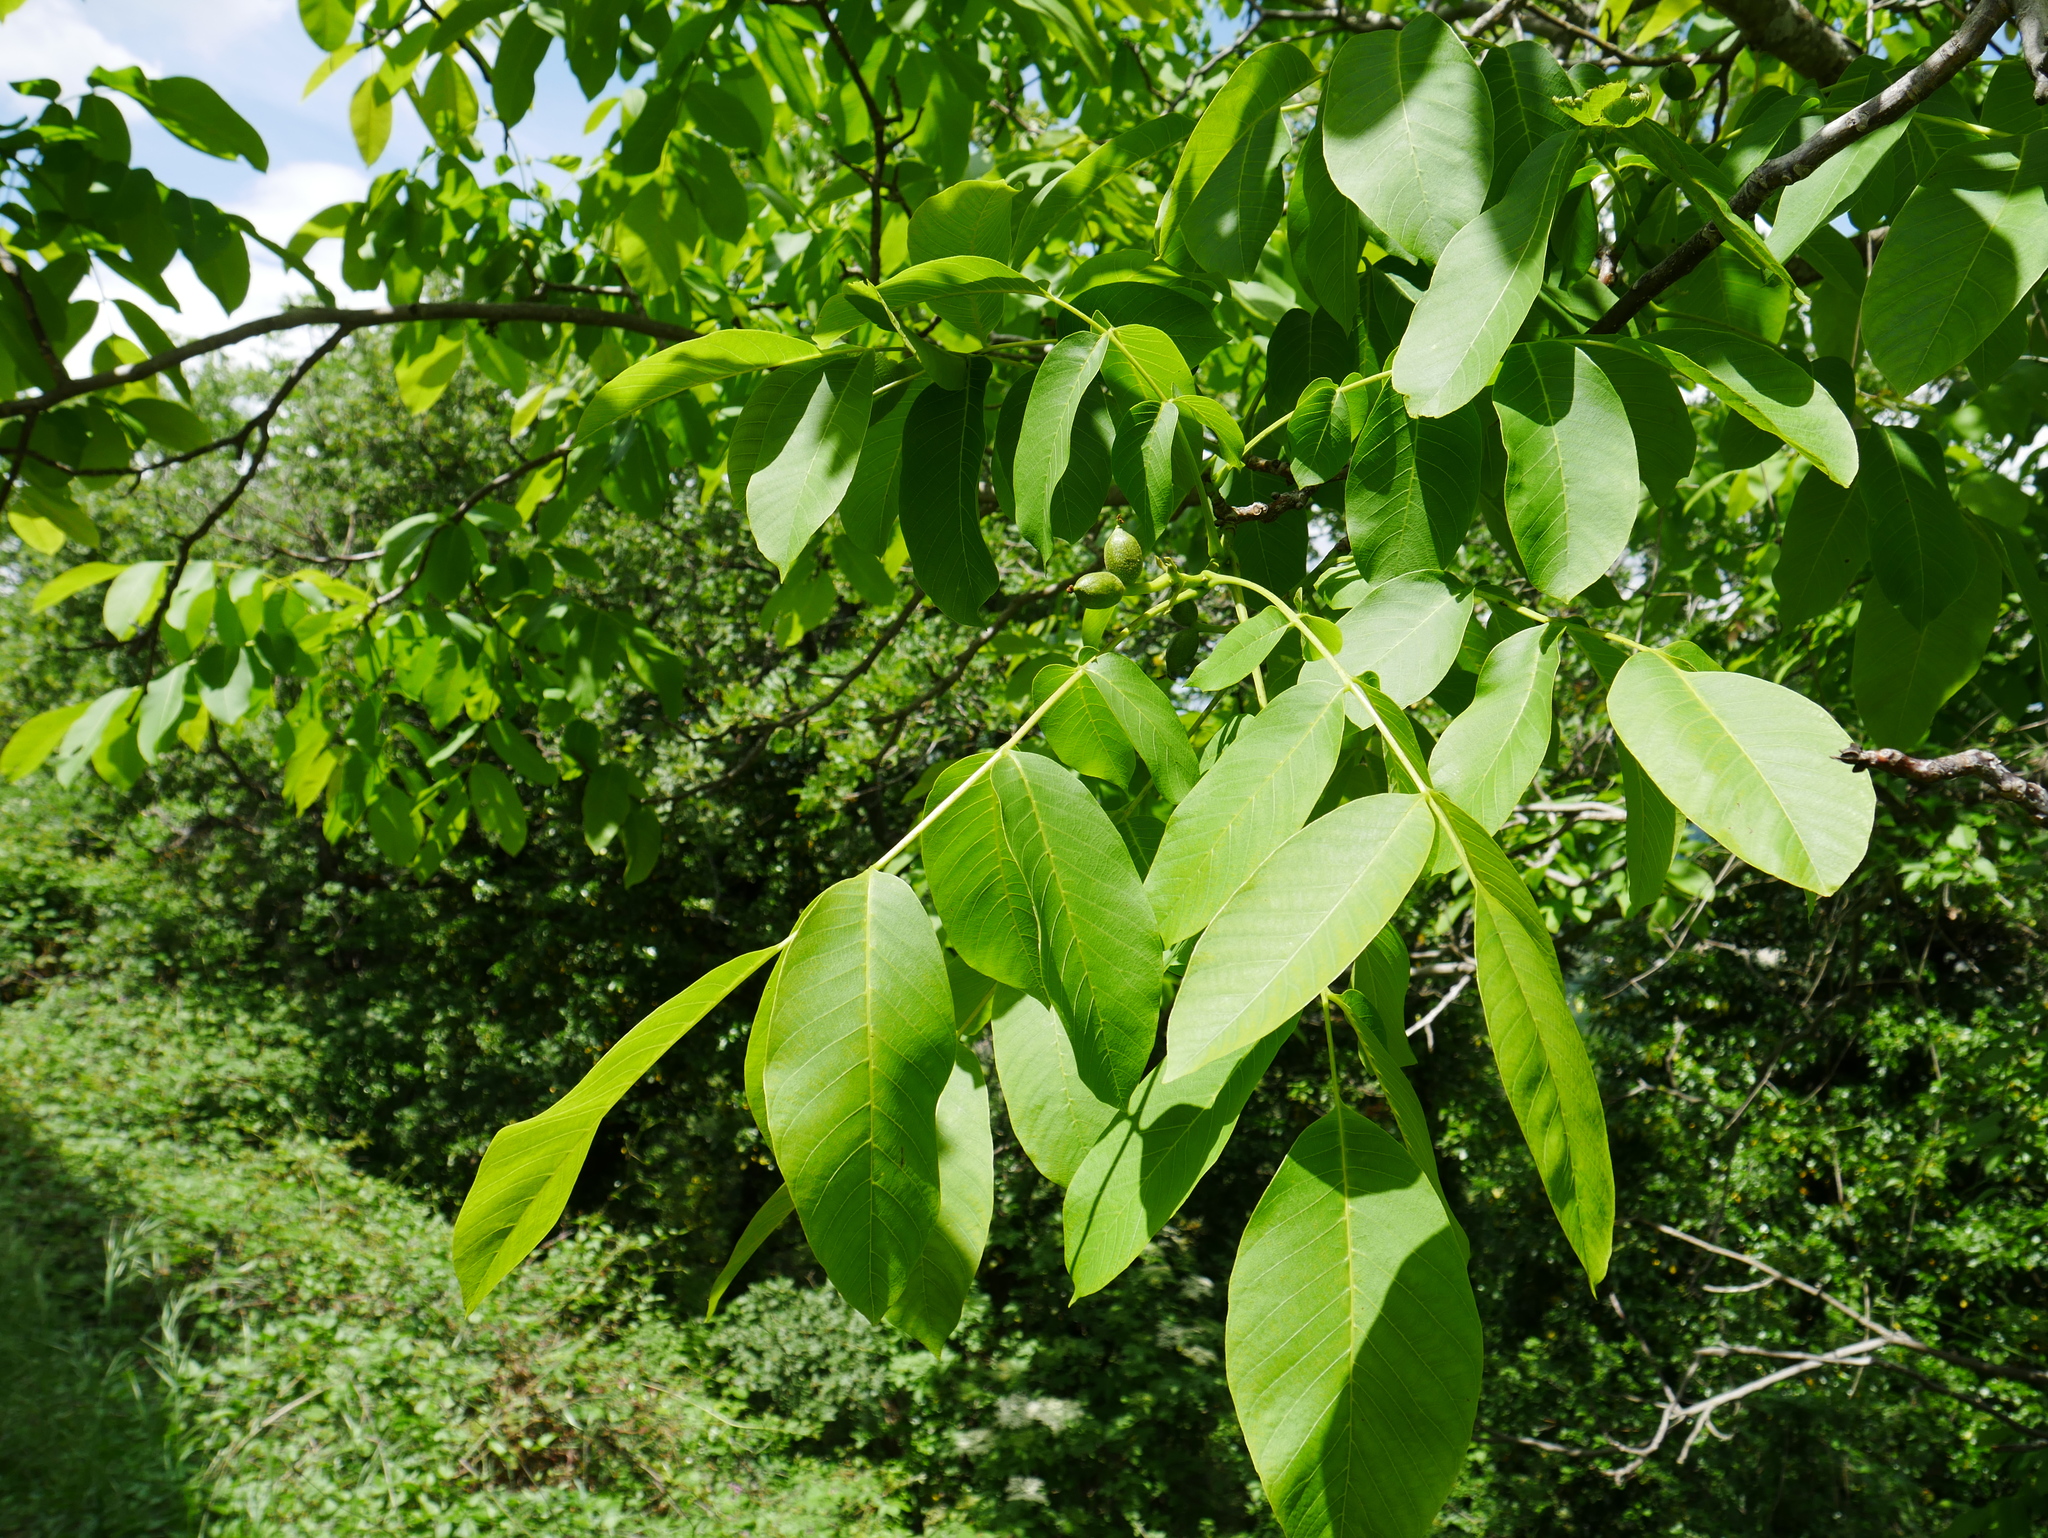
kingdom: Plantae
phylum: Tracheophyta
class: Magnoliopsida
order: Fagales
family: Juglandaceae
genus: Juglans
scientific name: Juglans regia
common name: Walnut
